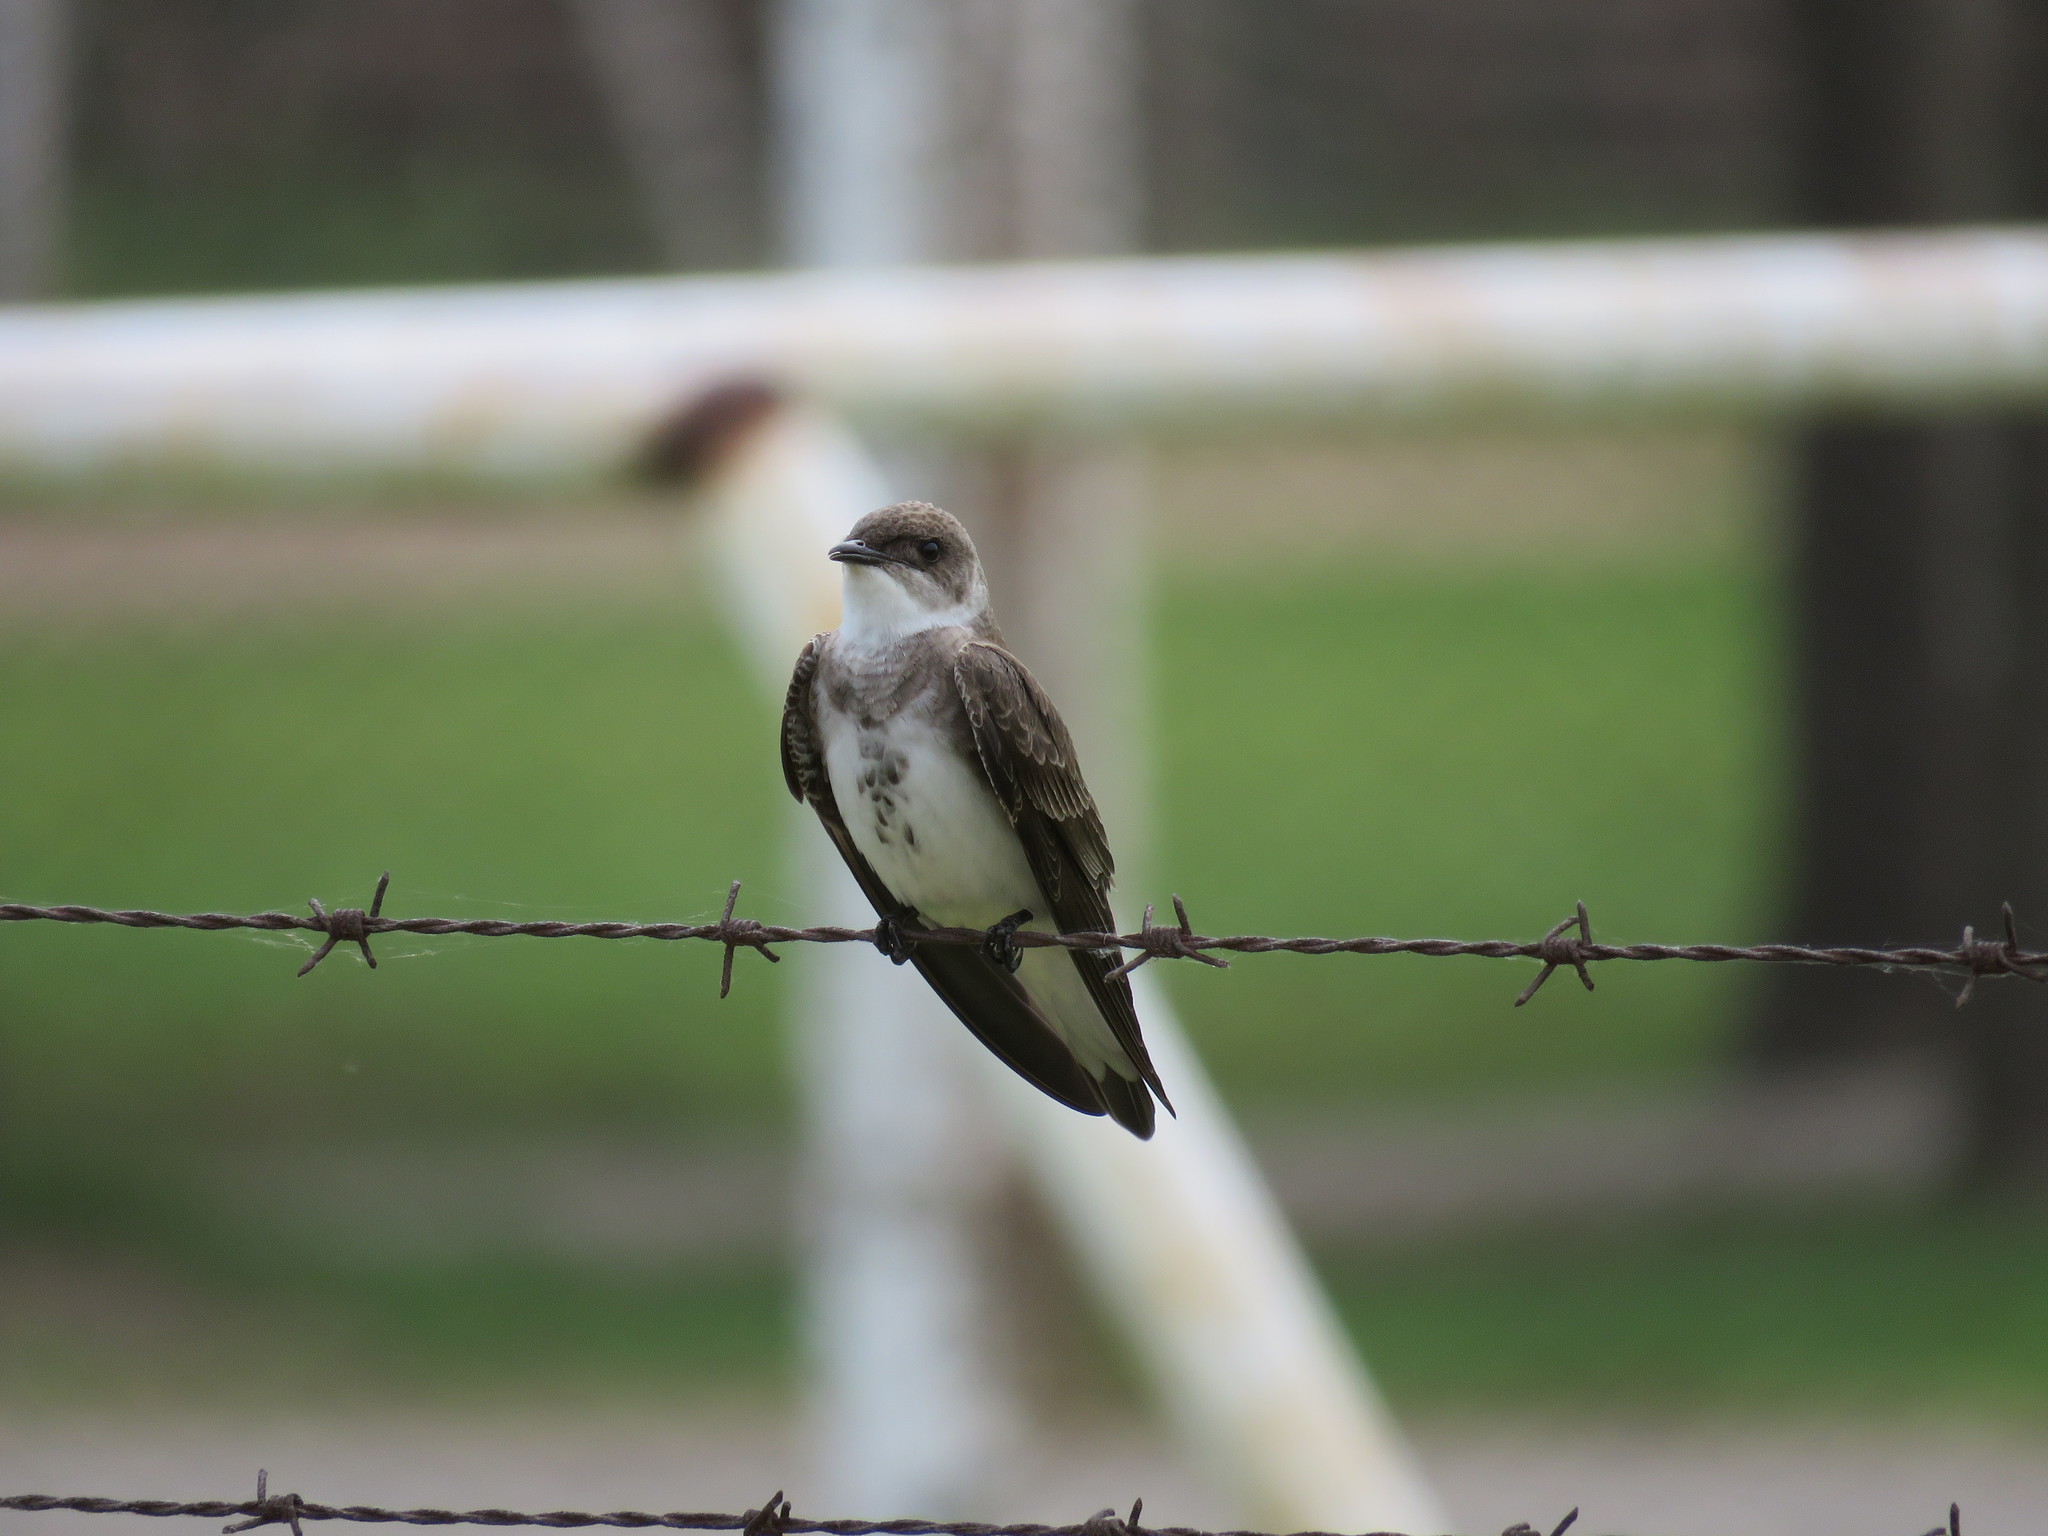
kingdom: Animalia
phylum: Chordata
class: Aves
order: Passeriformes
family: Hirundinidae
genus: Progne
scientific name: Progne tapera
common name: Brown-chested martin
